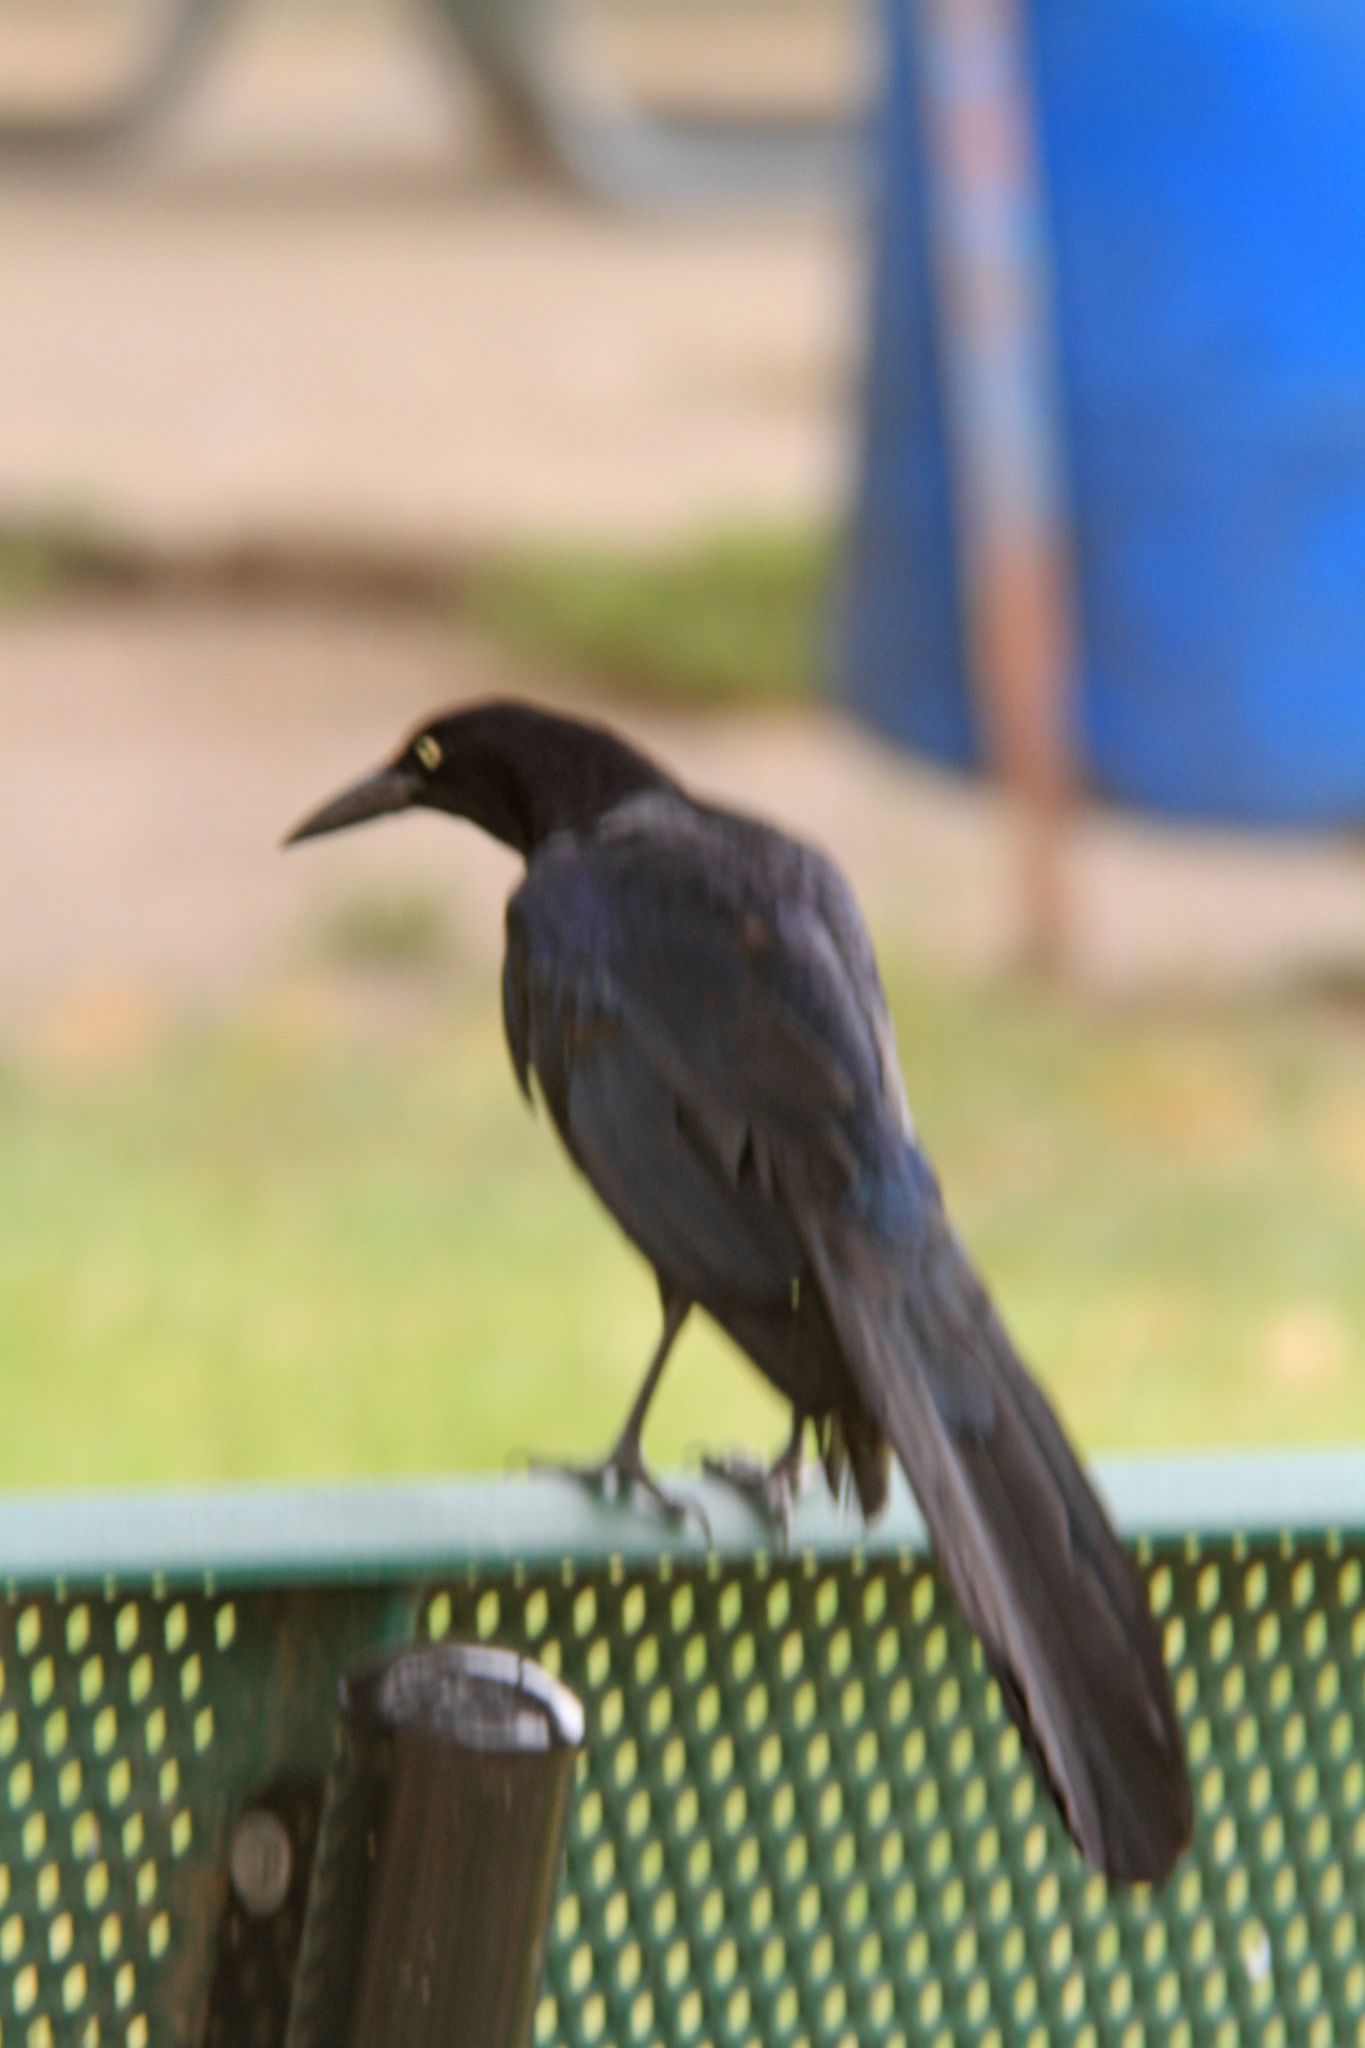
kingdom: Animalia
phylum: Chordata
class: Aves
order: Passeriformes
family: Icteridae
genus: Quiscalus
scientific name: Quiscalus mexicanus
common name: Great-tailed grackle
